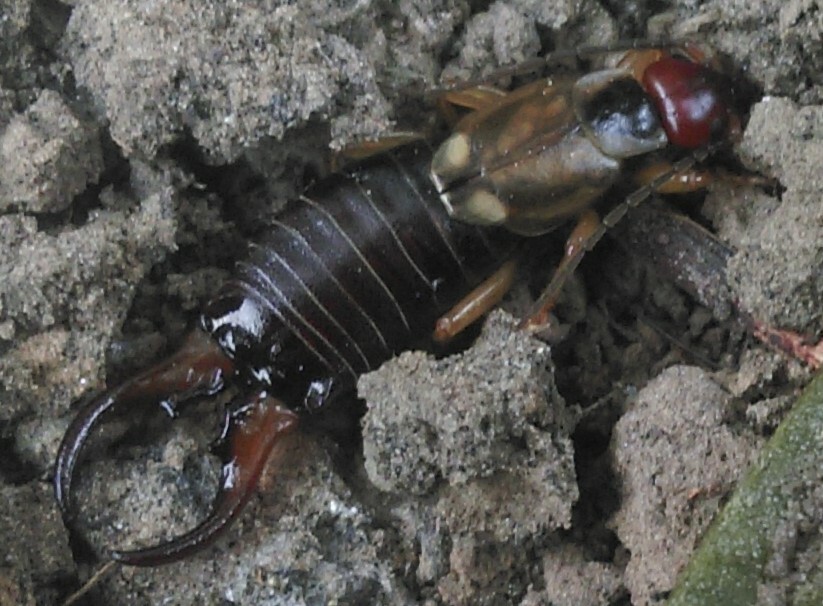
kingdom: Animalia
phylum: Arthropoda
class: Insecta
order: Dermaptera
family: Forficulidae
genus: Forficula
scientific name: Forficula
